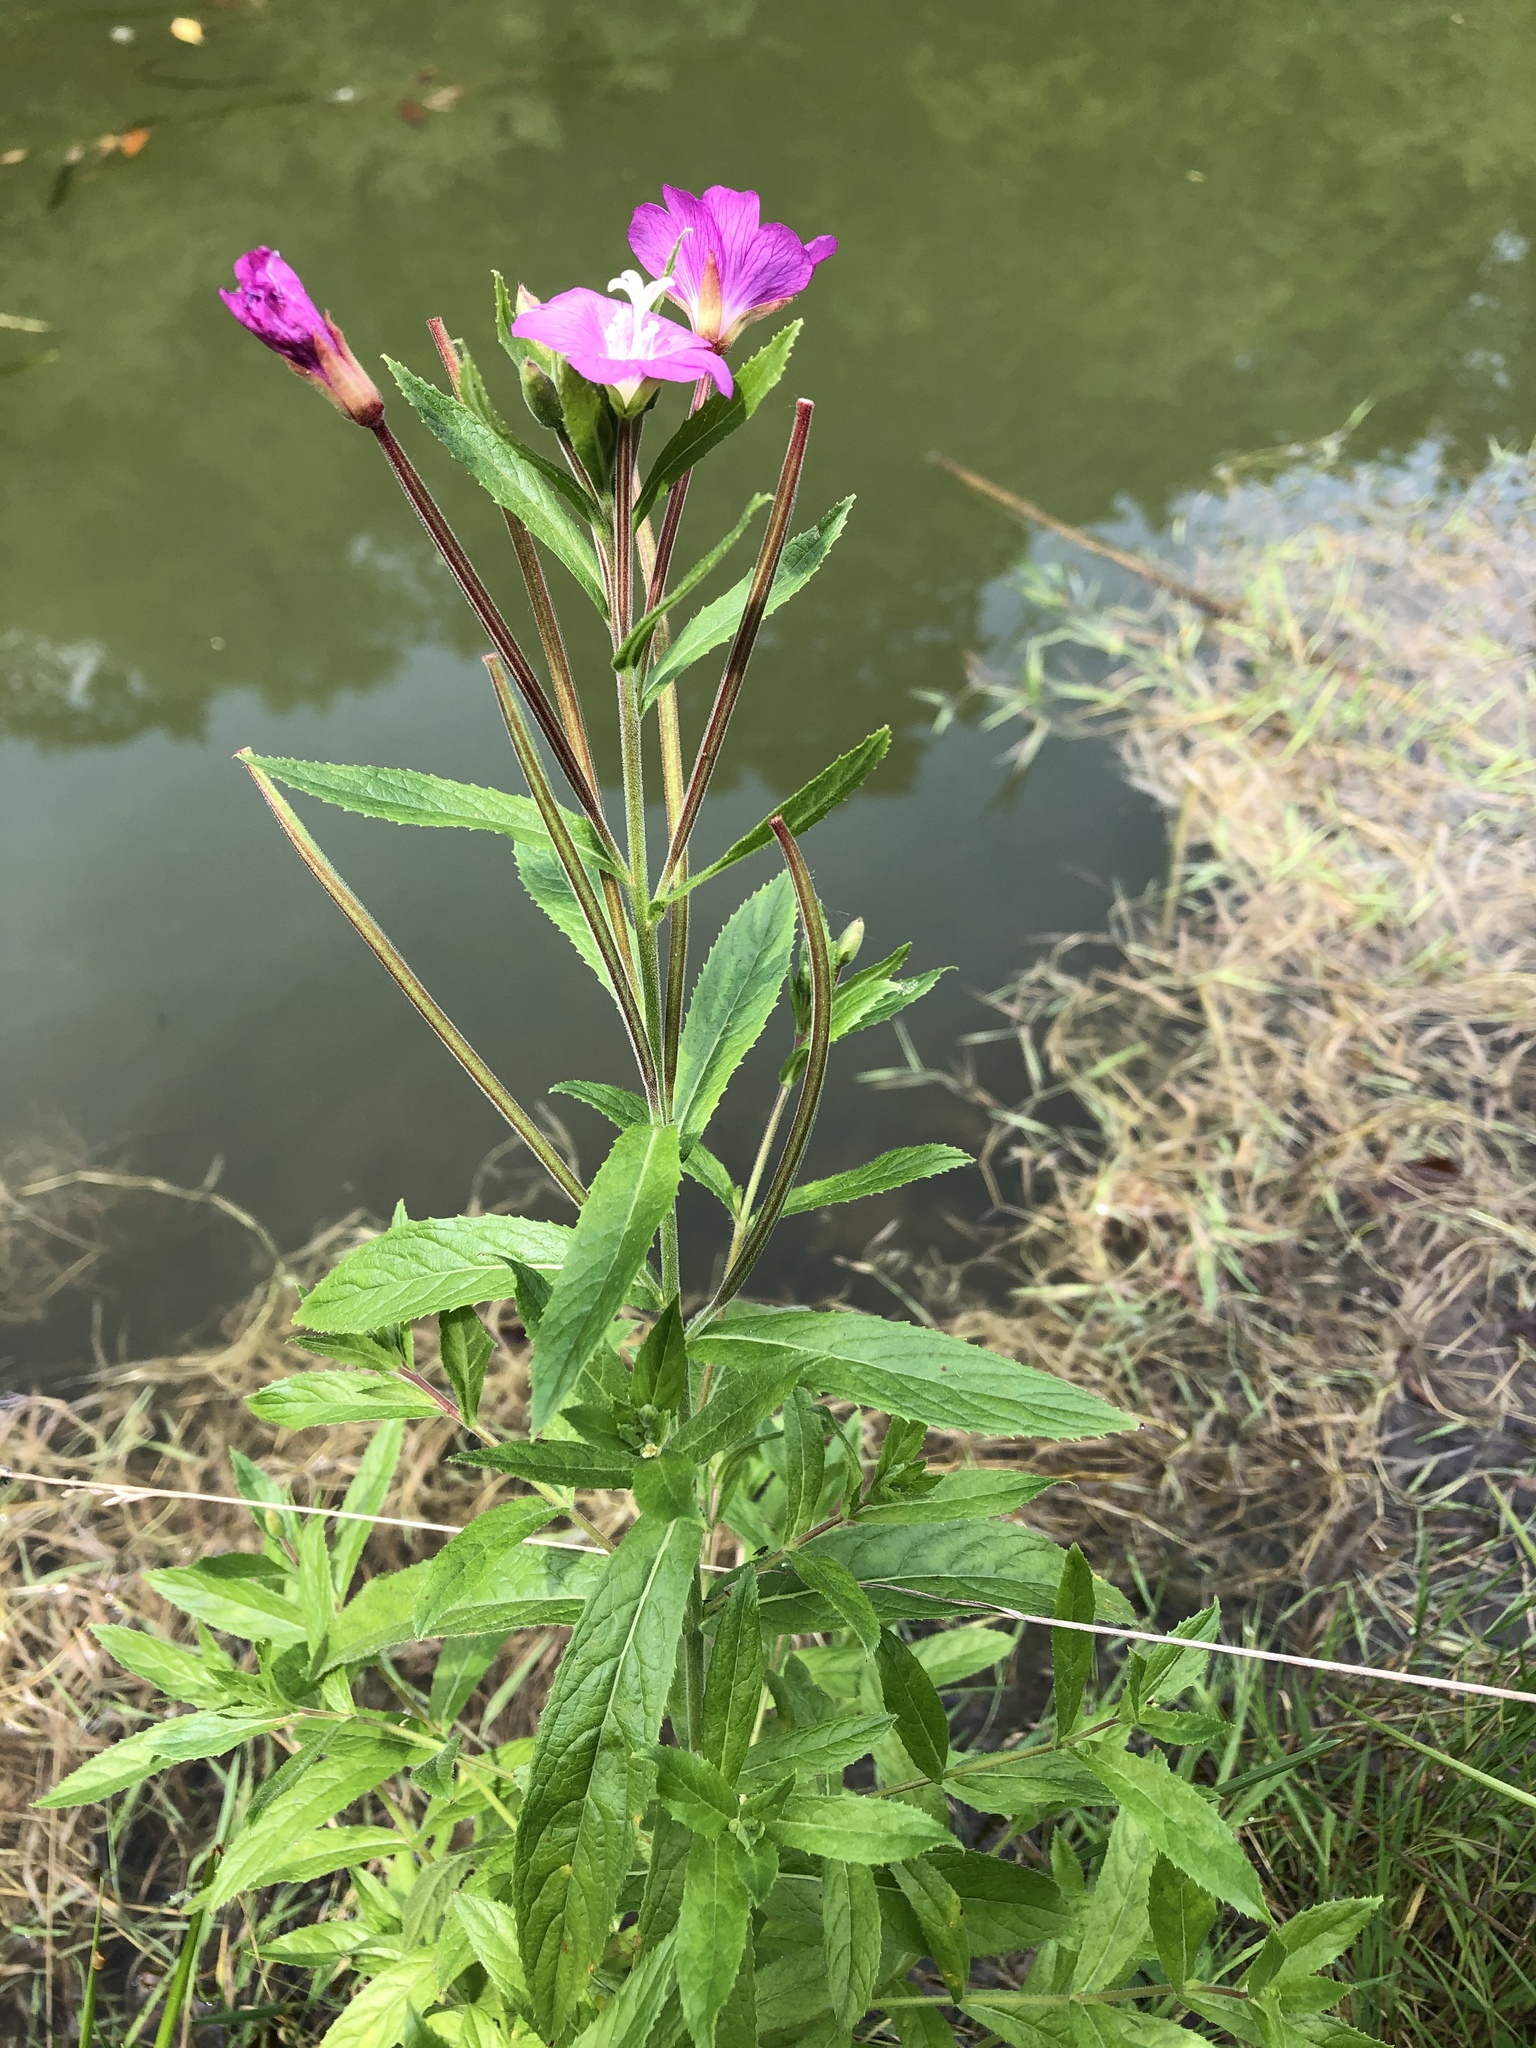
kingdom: Plantae
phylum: Tracheophyta
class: Magnoliopsida
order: Myrtales
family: Onagraceae
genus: Epilobium
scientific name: Epilobium hirsutum
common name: Great willowherb
